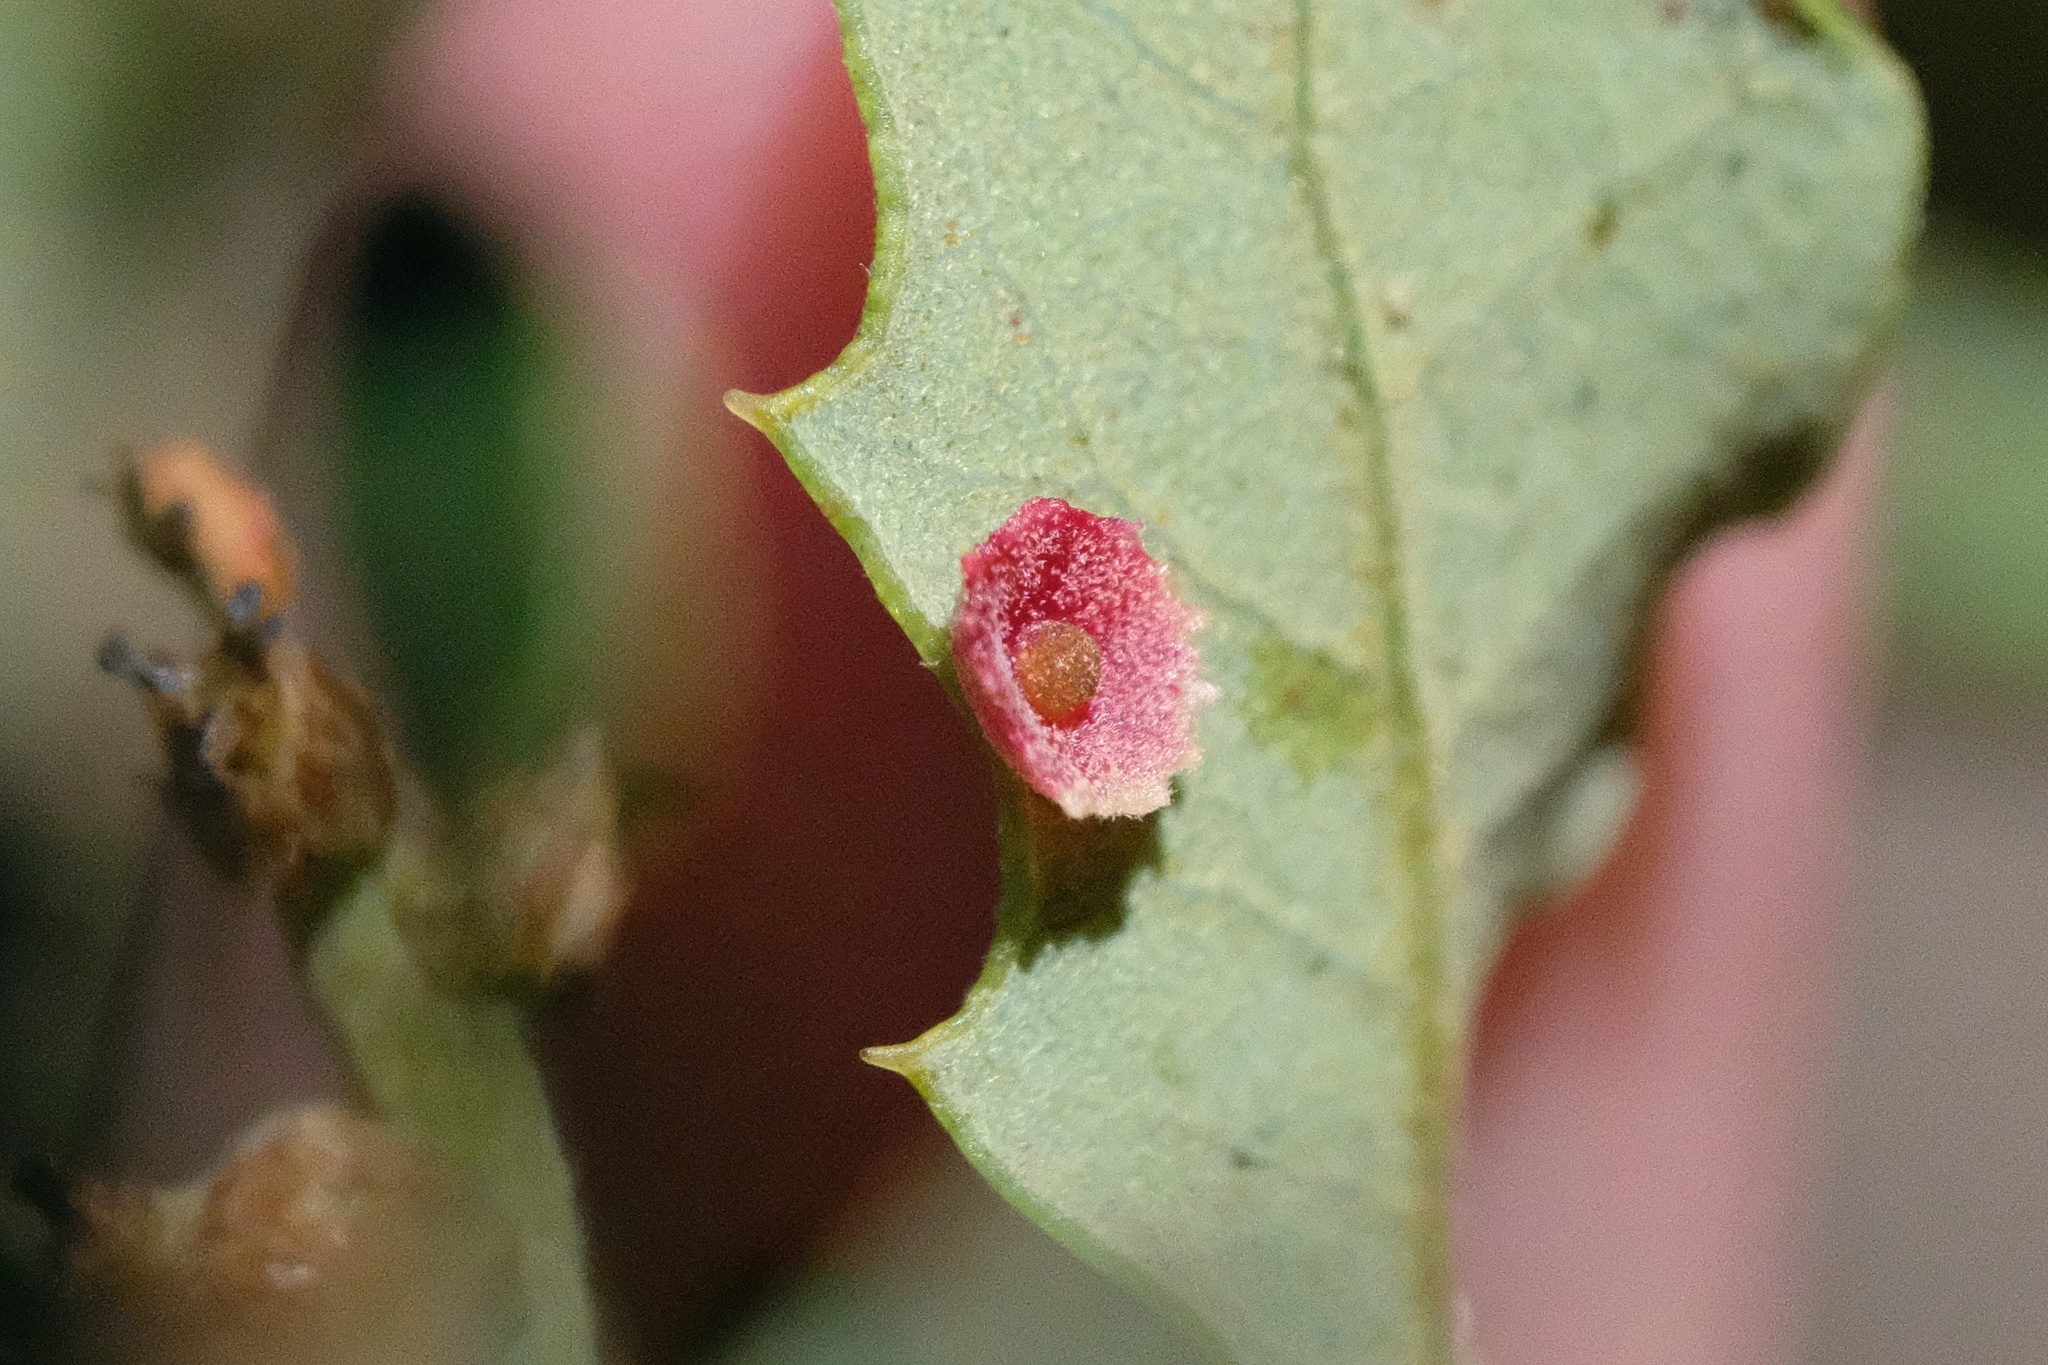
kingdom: Animalia
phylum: Arthropoda
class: Insecta
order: Hymenoptera
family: Cynipidae
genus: Andricus
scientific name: Andricus
